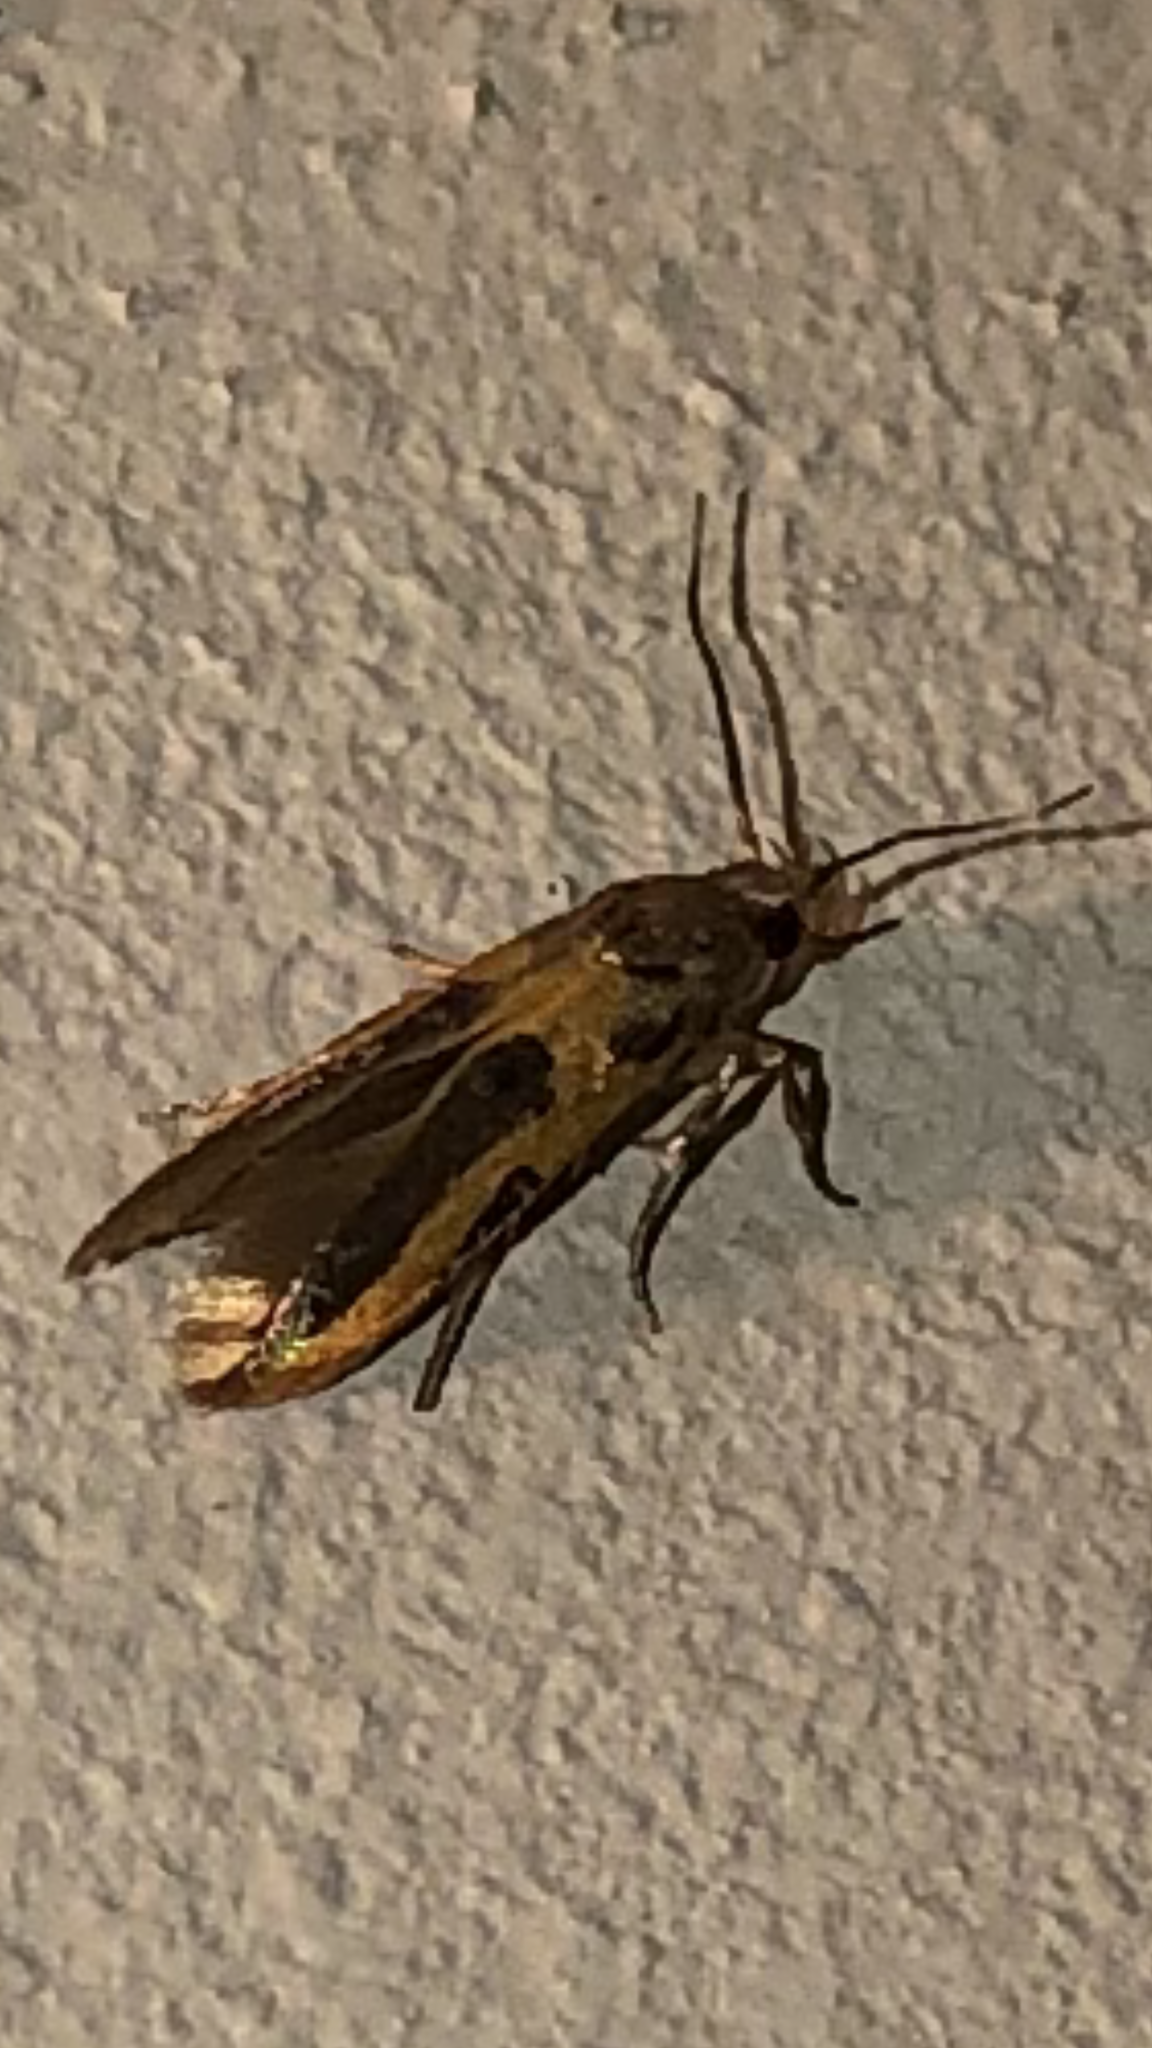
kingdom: Animalia
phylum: Arthropoda
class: Insecta
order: Lepidoptera
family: Cosmopterigidae
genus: Euclemensia
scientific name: Euclemensia bassettella
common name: Kermes scale moth
